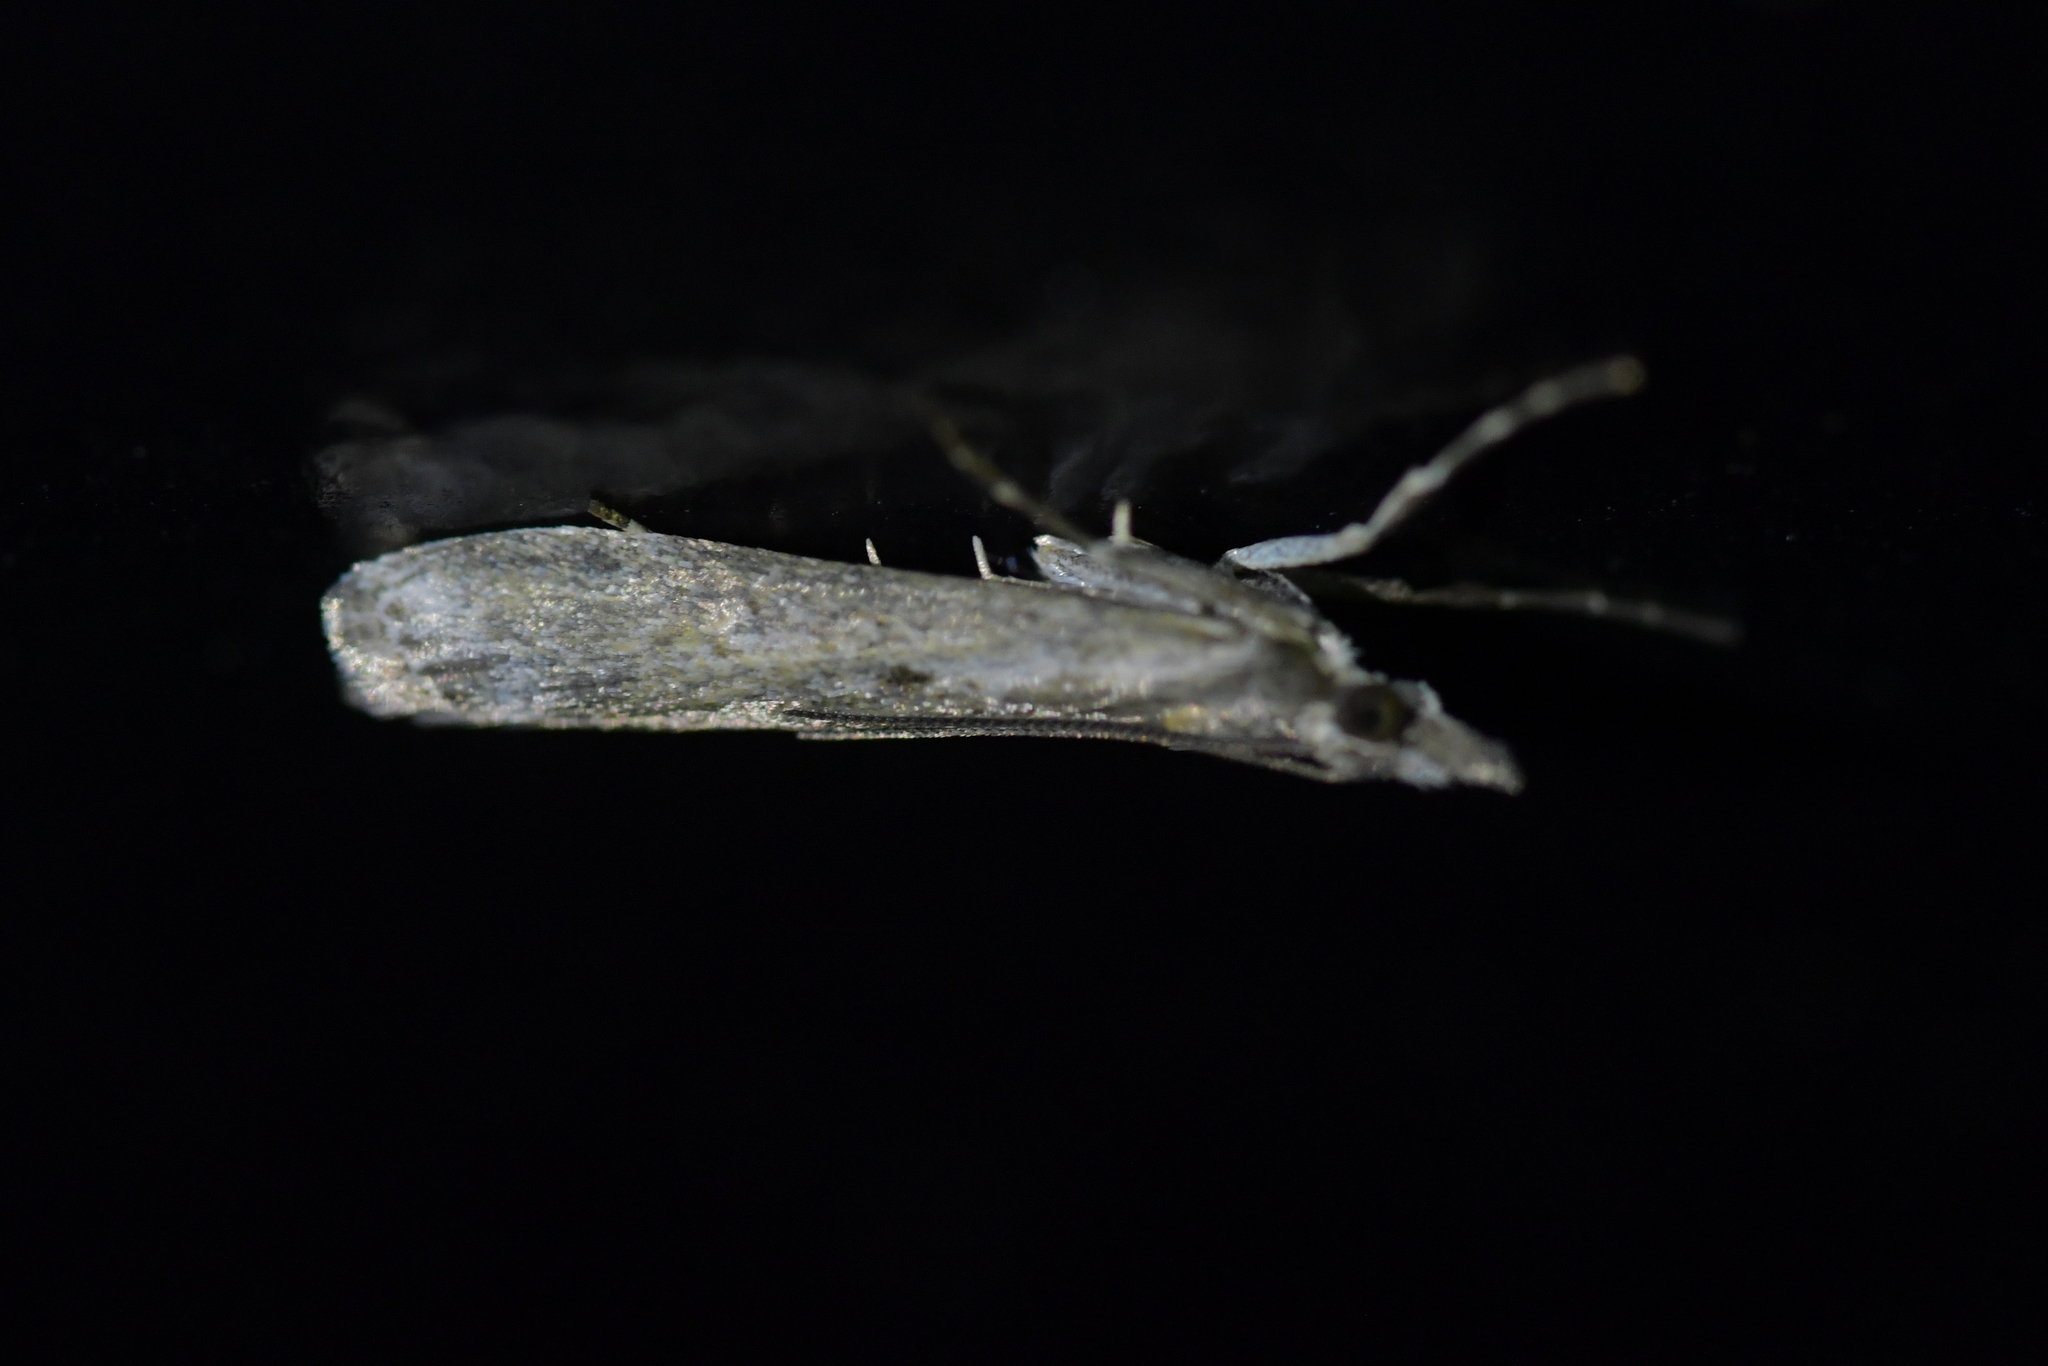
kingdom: Animalia
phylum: Arthropoda
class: Insecta
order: Lepidoptera
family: Crambidae
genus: Eudonia
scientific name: Eudonia leptalea
